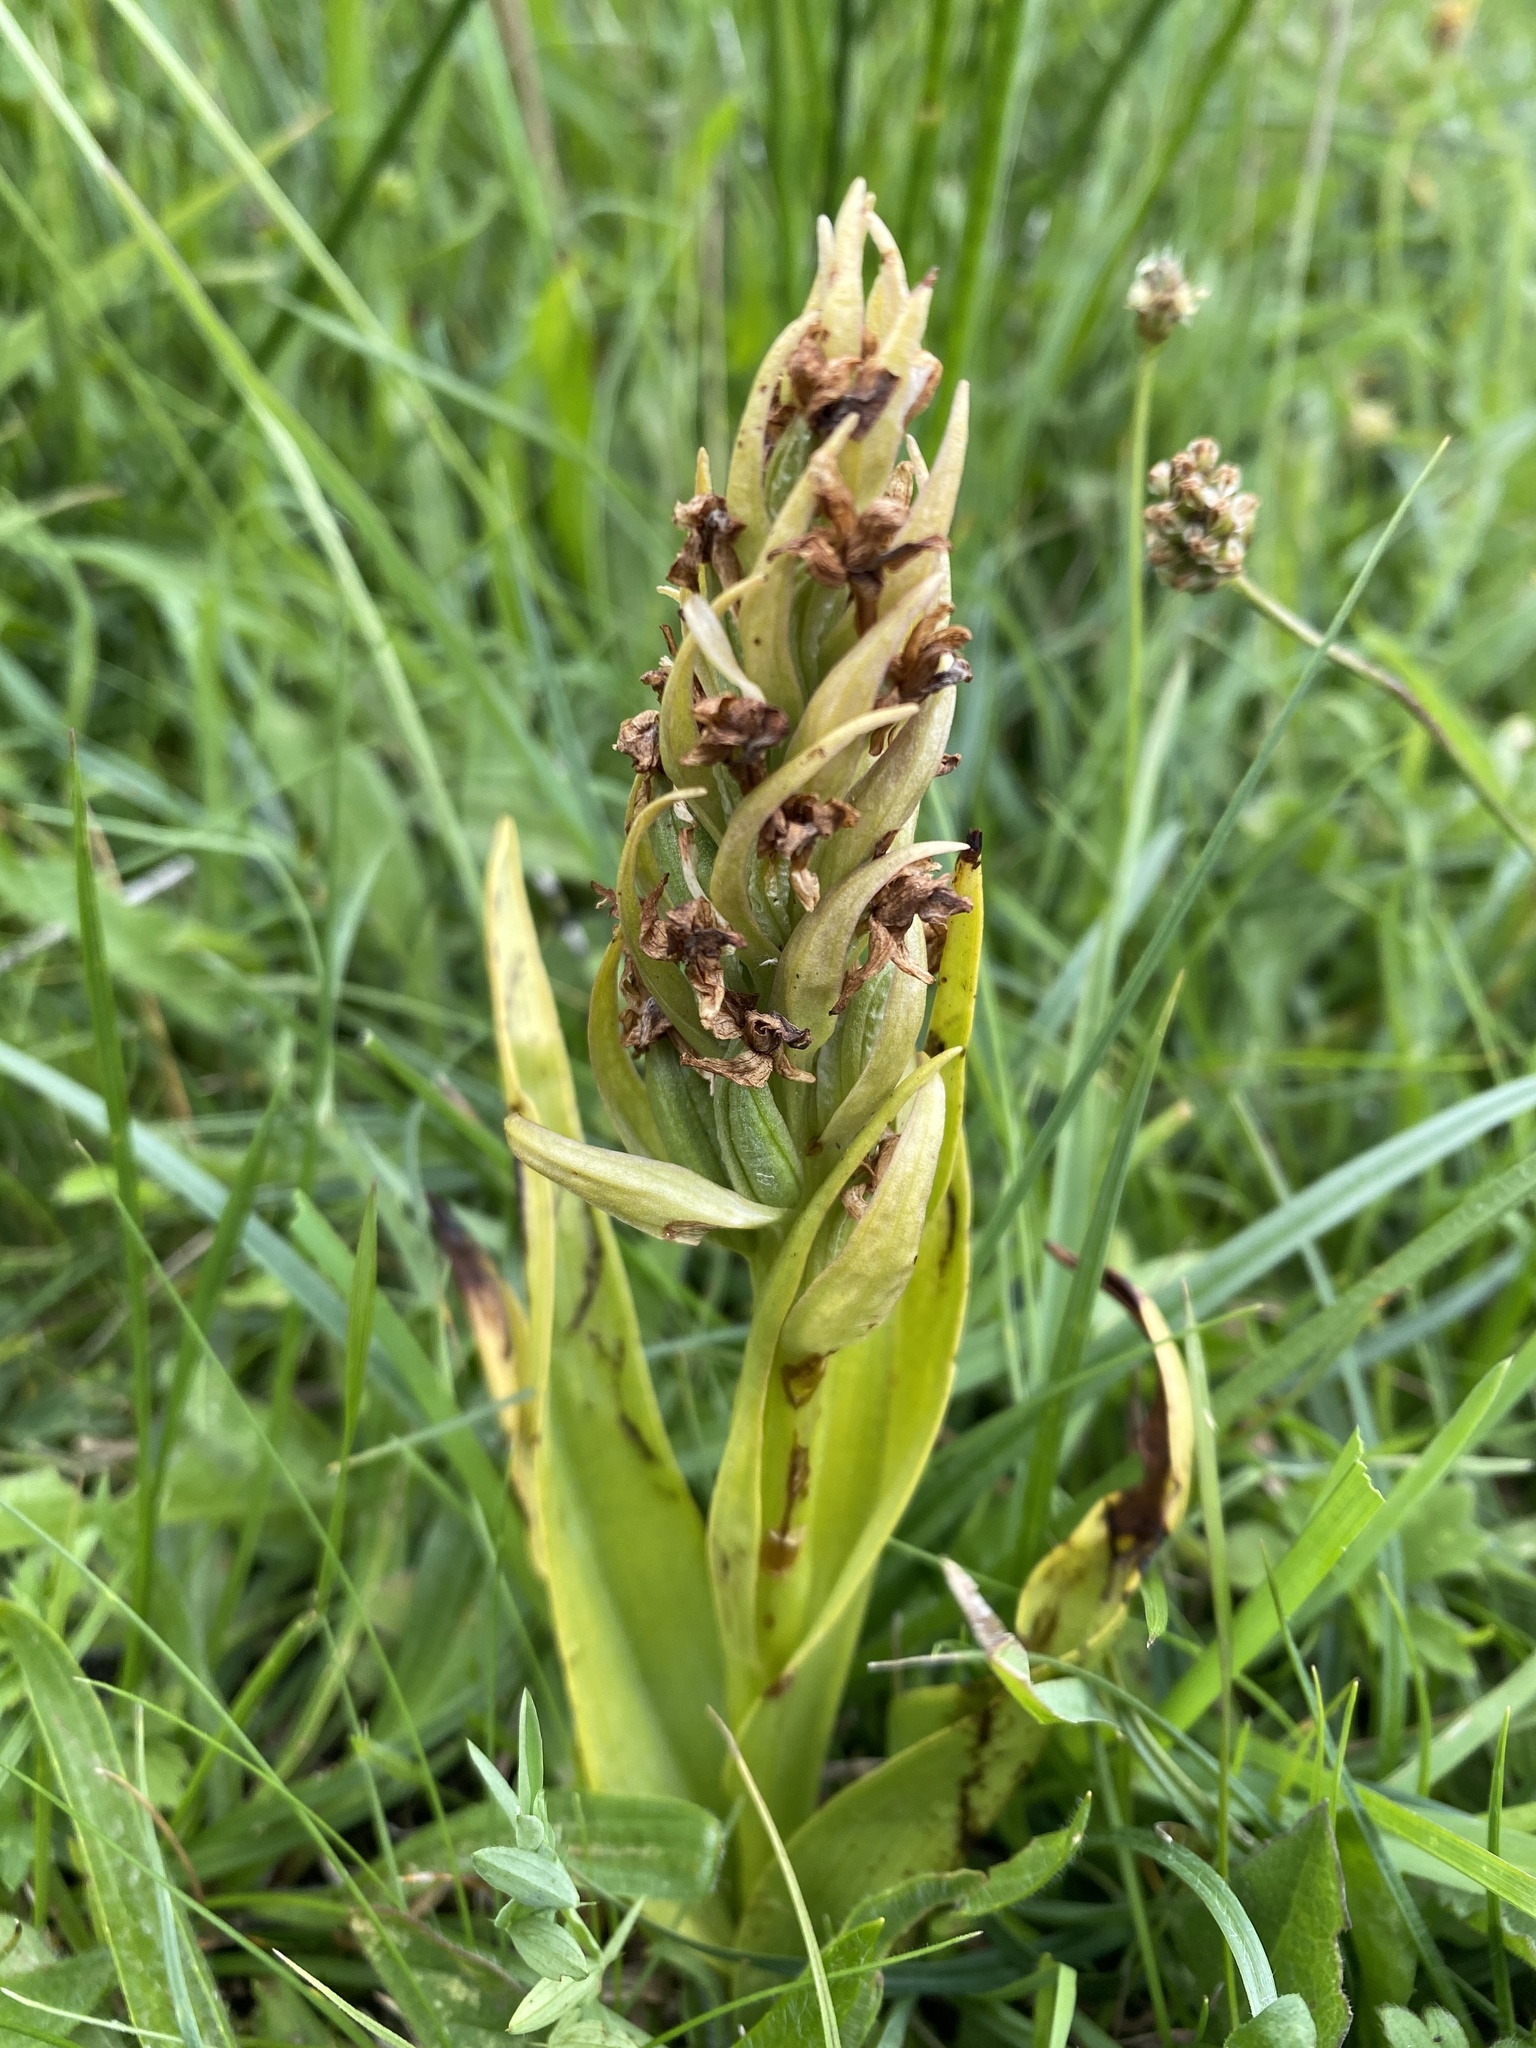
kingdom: Plantae
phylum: Tracheophyta
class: Liliopsida
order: Asparagales
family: Orchidaceae
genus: Dactylorhiza
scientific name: Dactylorhiza incarnata
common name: Early marsh-orchid
